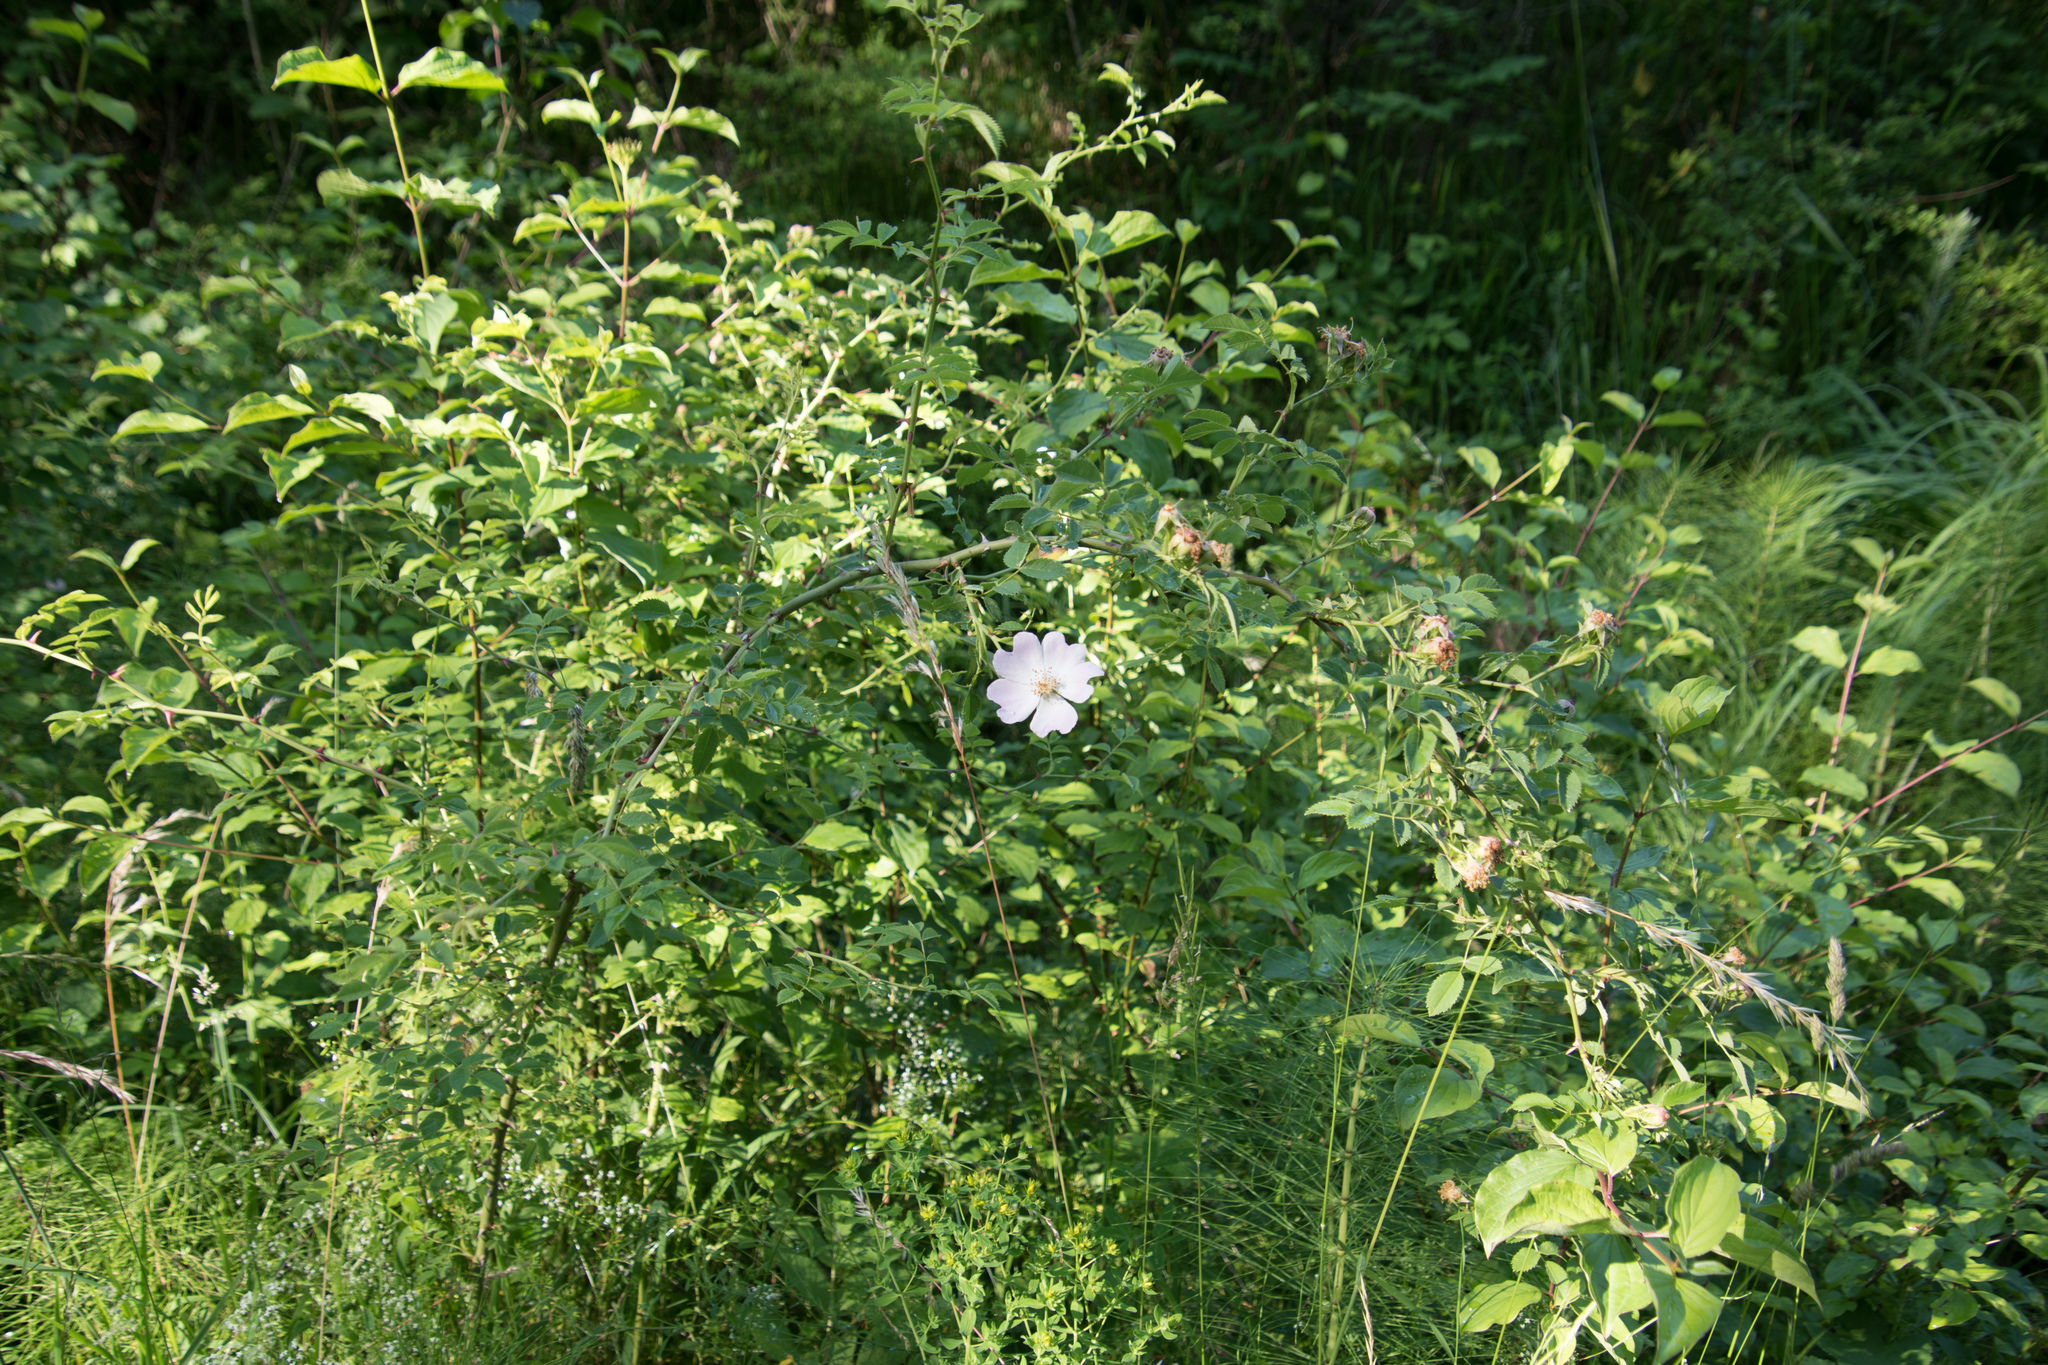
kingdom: Plantae
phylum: Tracheophyta
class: Magnoliopsida
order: Rosales
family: Rosaceae
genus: Rosa
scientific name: Rosa canina
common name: Dog rose
